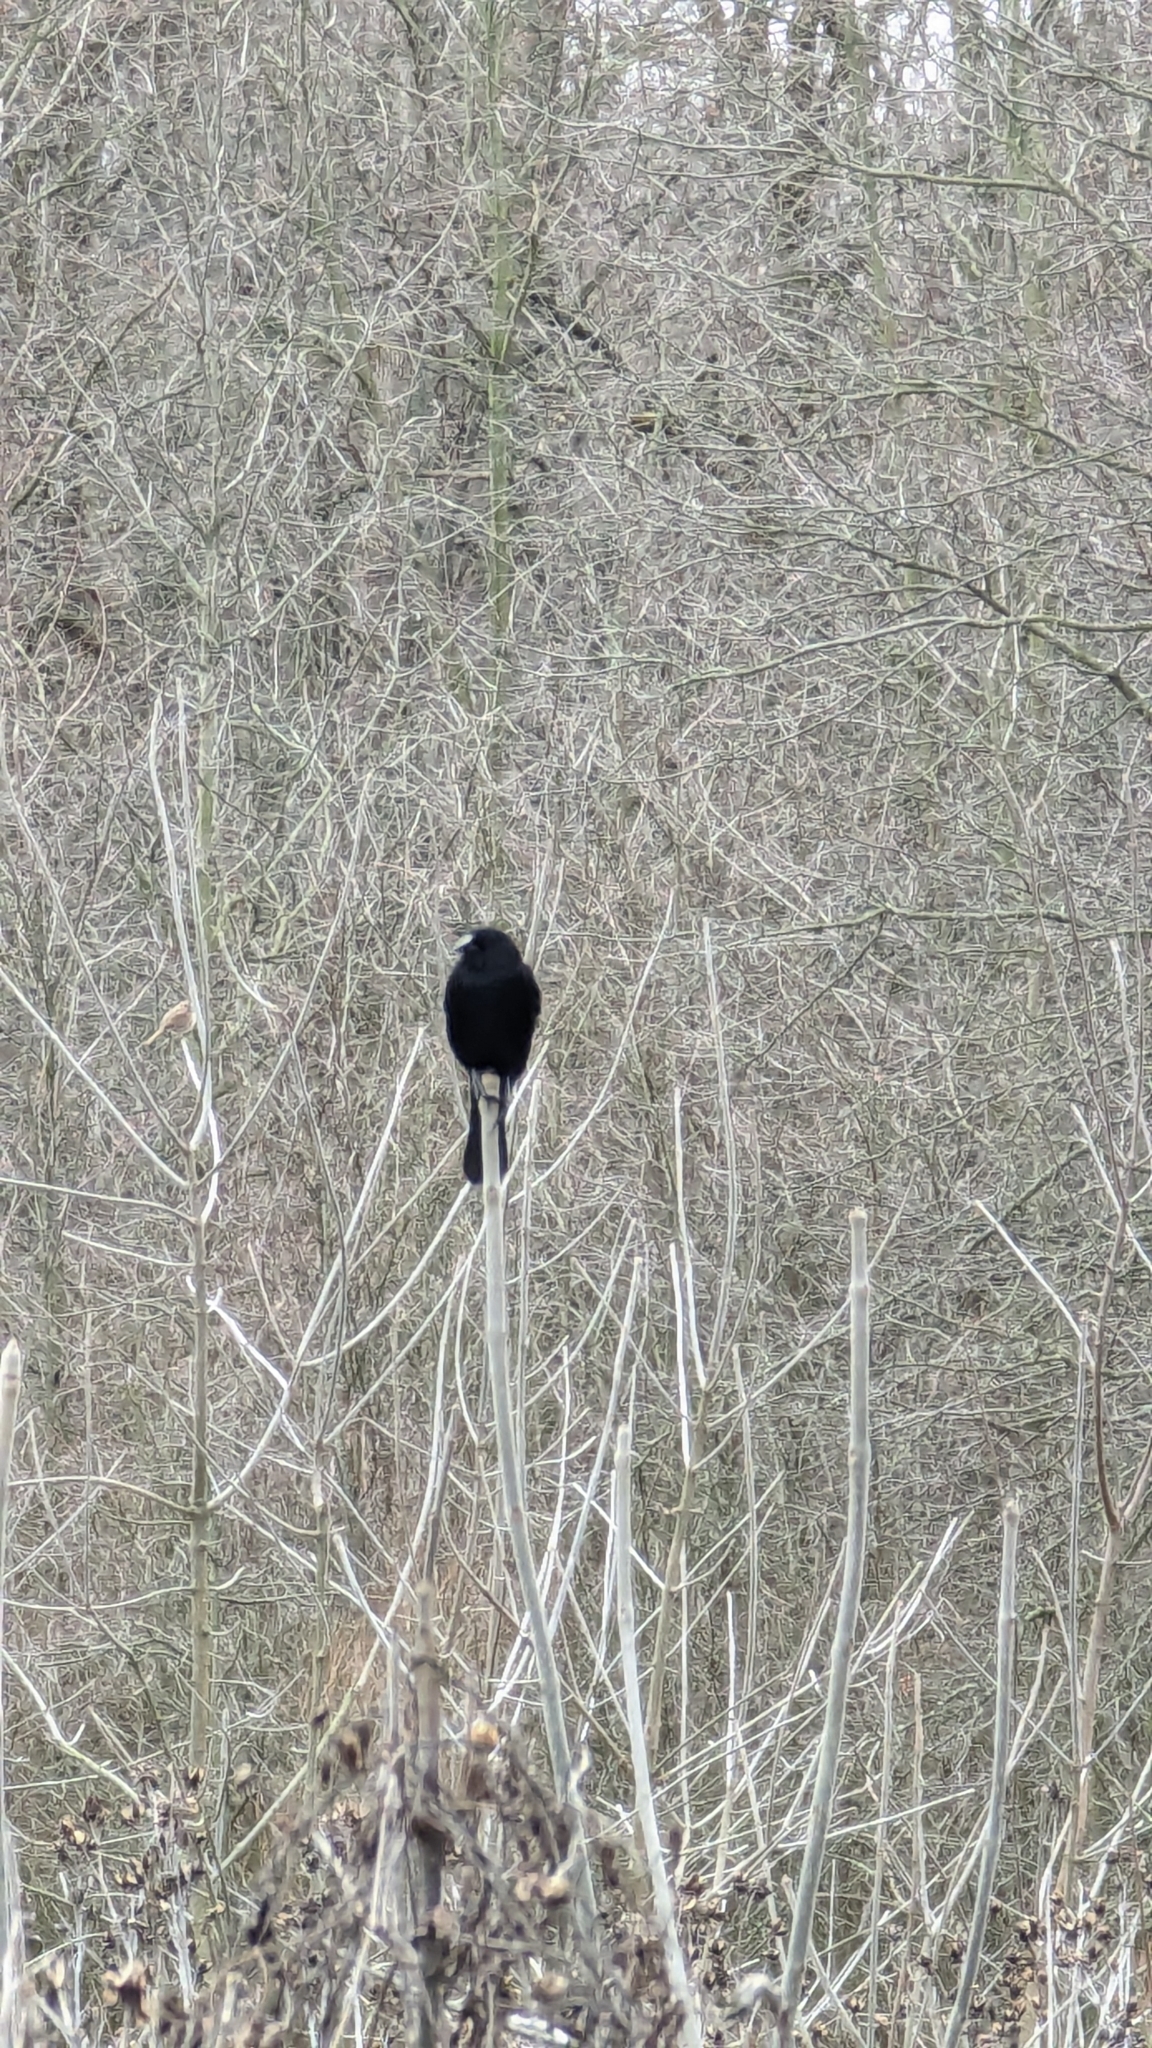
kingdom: Animalia
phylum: Chordata
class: Aves
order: Passeriformes
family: Icteridae
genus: Agelaius
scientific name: Agelaius phoeniceus
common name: Red-winged blackbird
